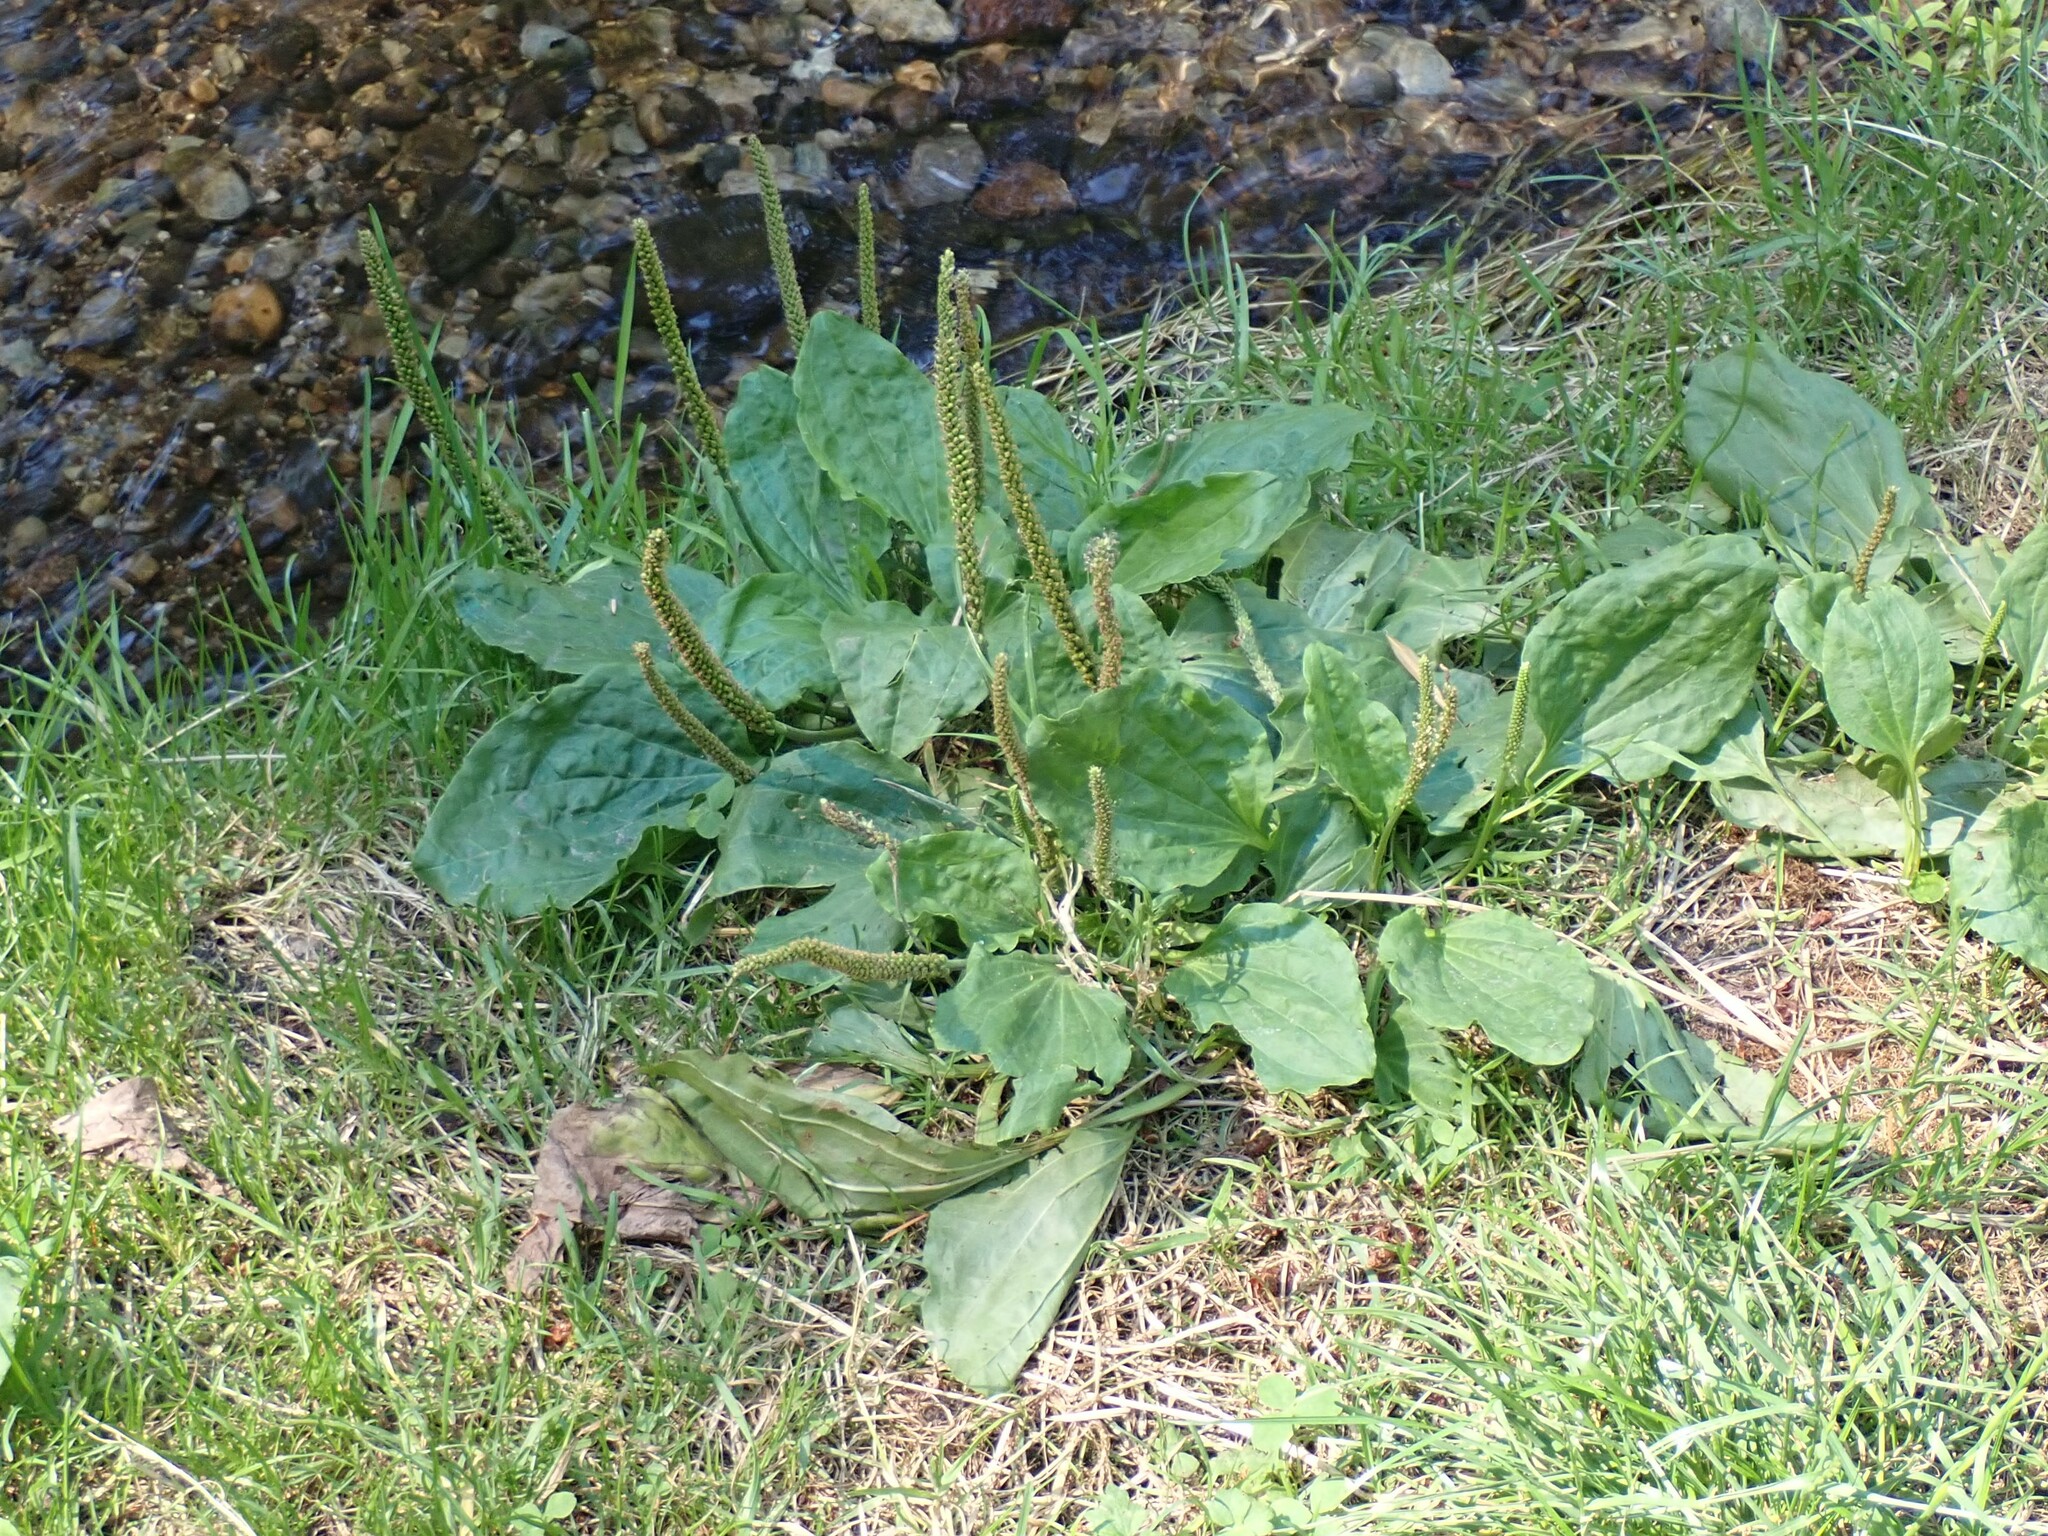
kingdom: Plantae
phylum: Tracheophyta
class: Magnoliopsida
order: Lamiales
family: Plantaginaceae
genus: Plantago
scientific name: Plantago major
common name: Common plantain
